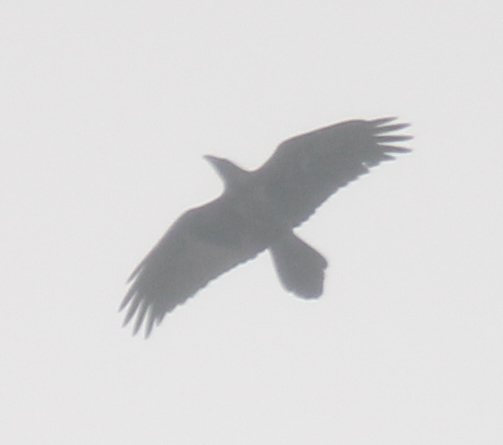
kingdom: Animalia
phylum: Chordata
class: Aves
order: Passeriformes
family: Corvidae
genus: Corvus
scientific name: Corvus corax
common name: Common raven
